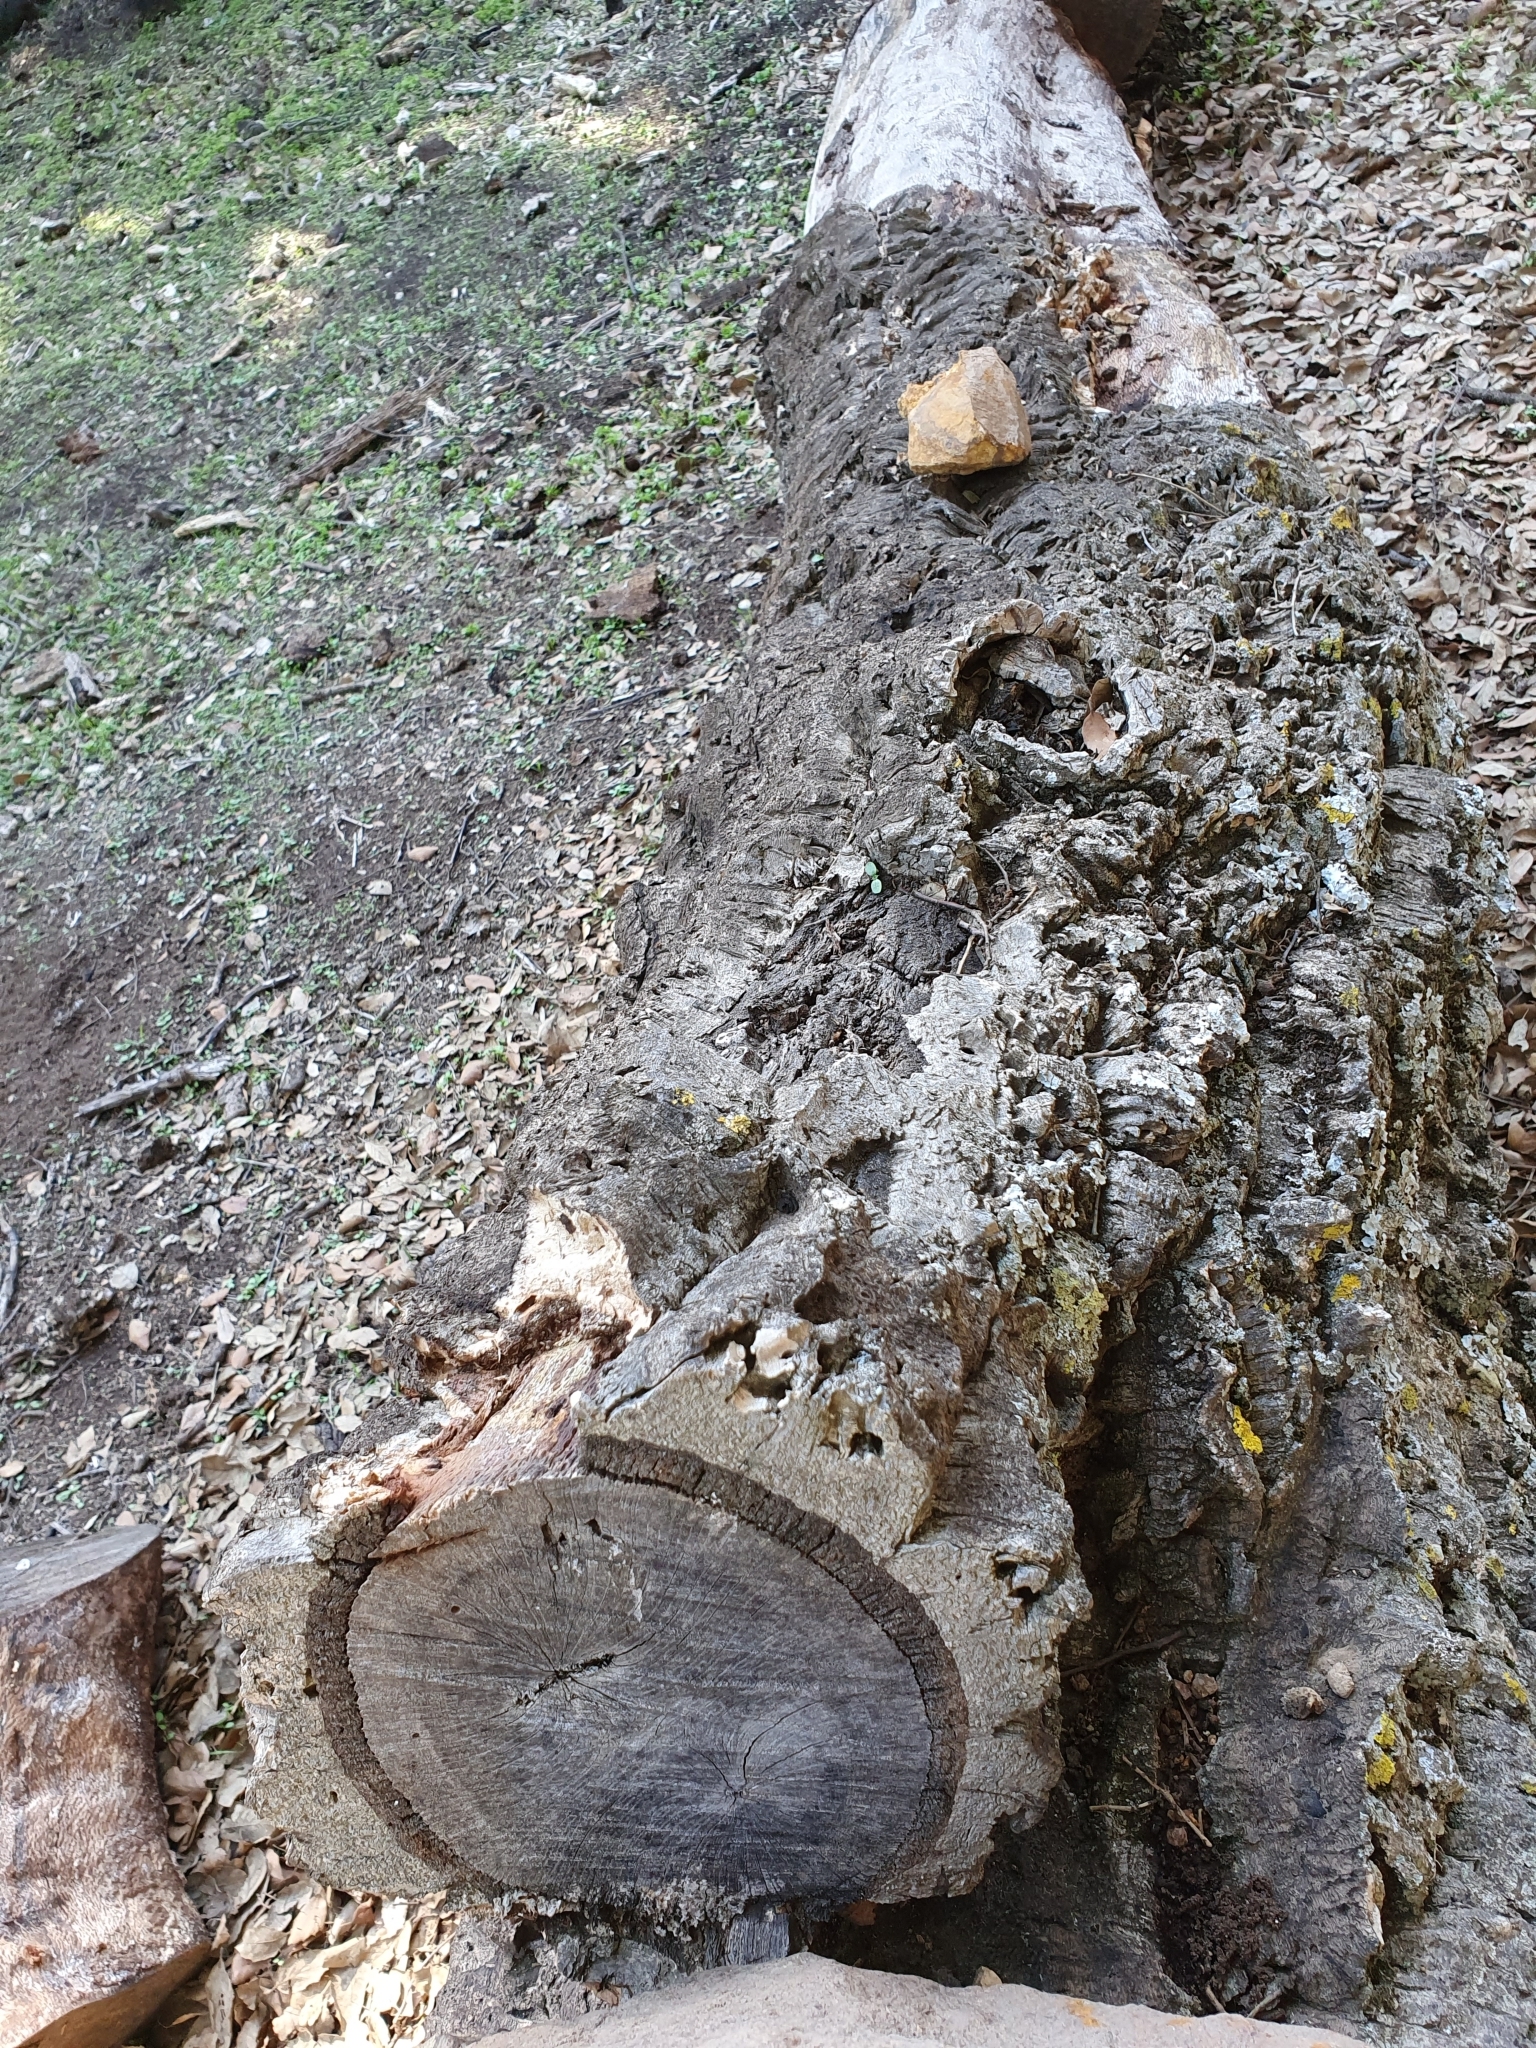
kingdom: Plantae
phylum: Tracheophyta
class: Magnoliopsida
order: Fagales
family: Fagaceae
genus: Quercus
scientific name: Quercus suber
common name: Cork oak
